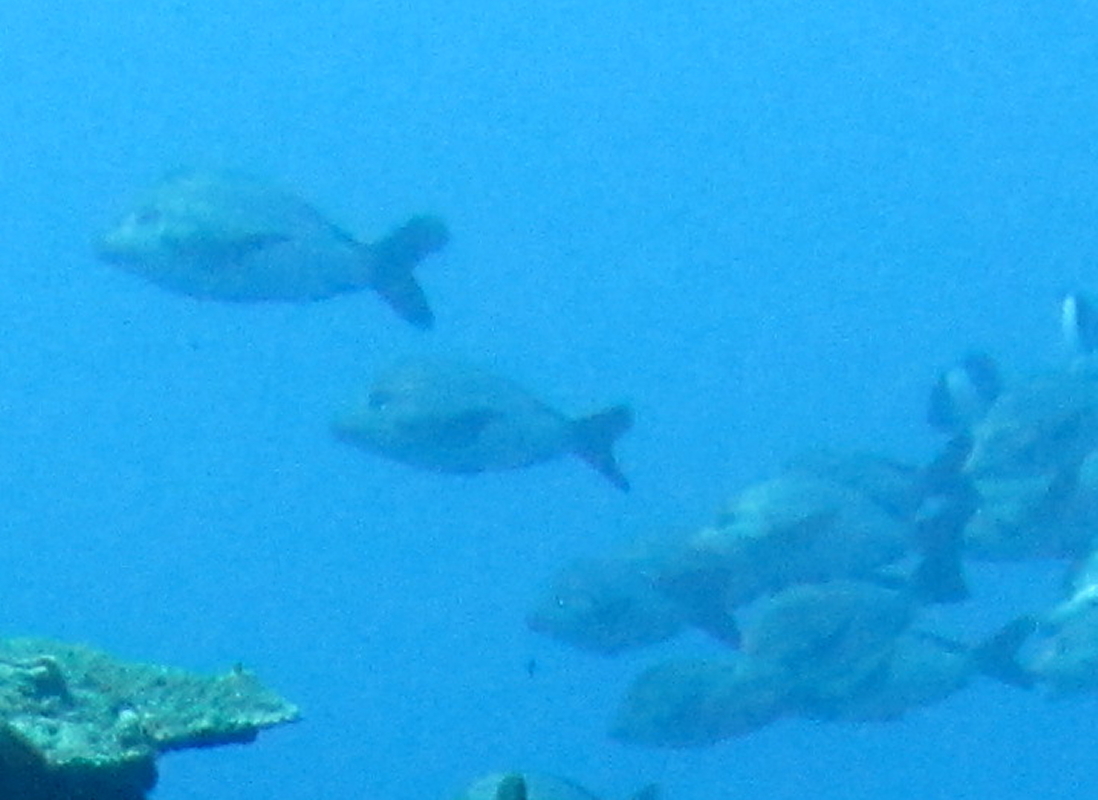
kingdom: Animalia
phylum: Chordata
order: Perciformes
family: Lutjanidae
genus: Lutjanus
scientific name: Lutjanus gibbus
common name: Humpback snapper
